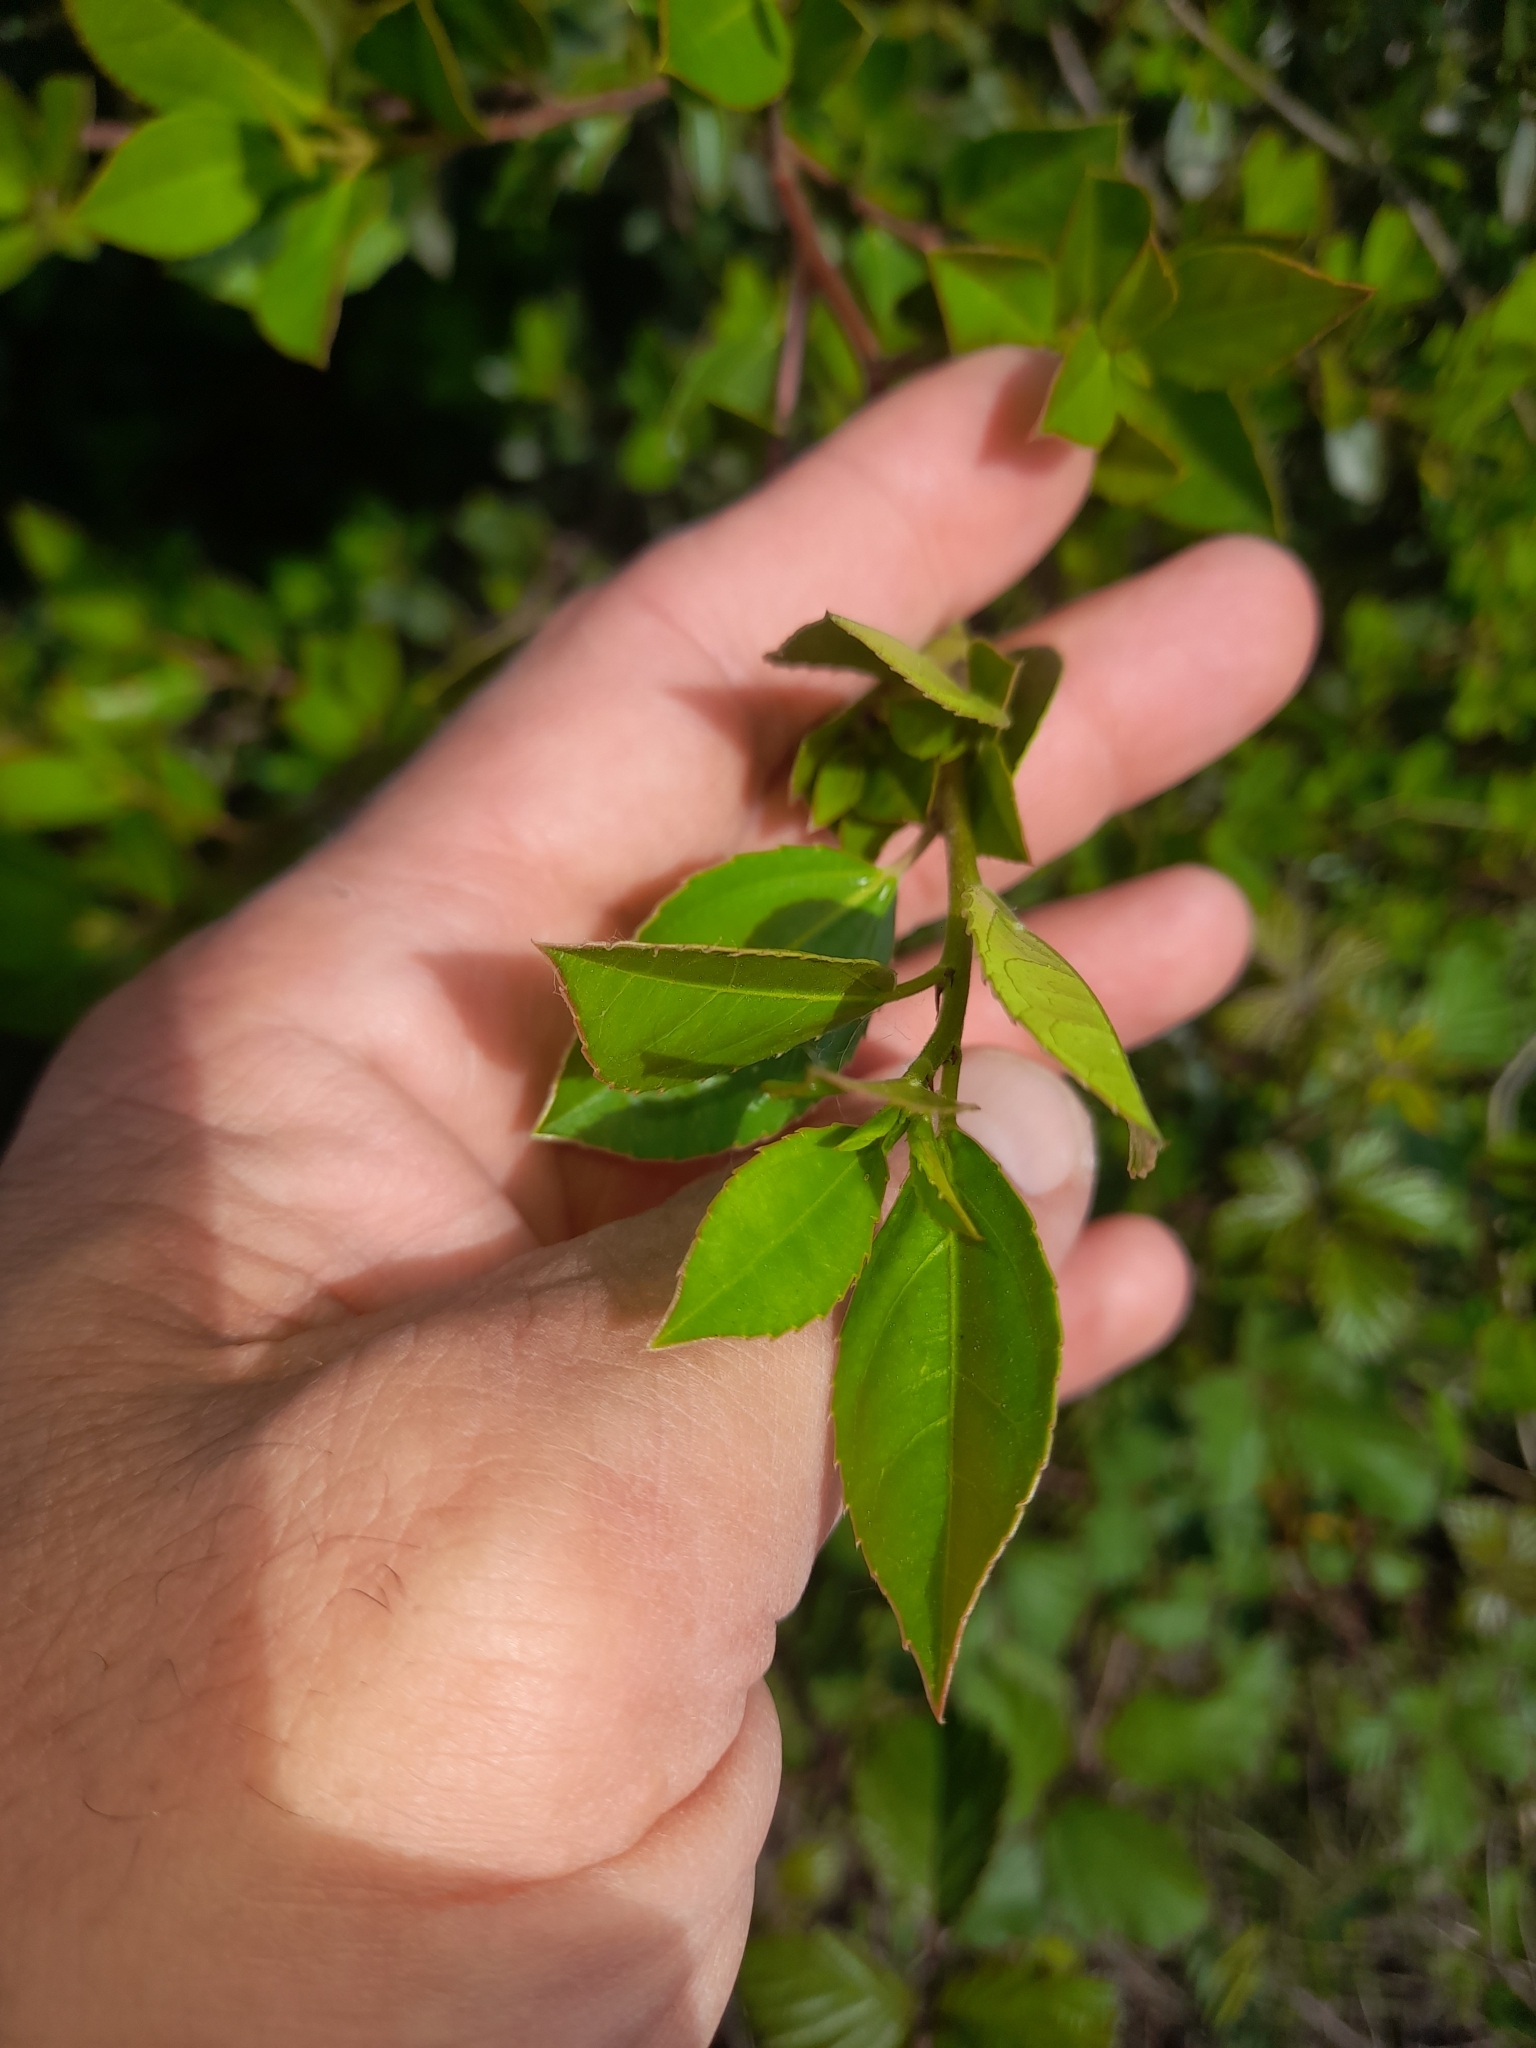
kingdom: Plantae
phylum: Tracheophyta
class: Magnoliopsida
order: Rosales
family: Rhamnaceae
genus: Rhamnus
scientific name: Rhamnus alaternus
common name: Mediterranean buckthorn
